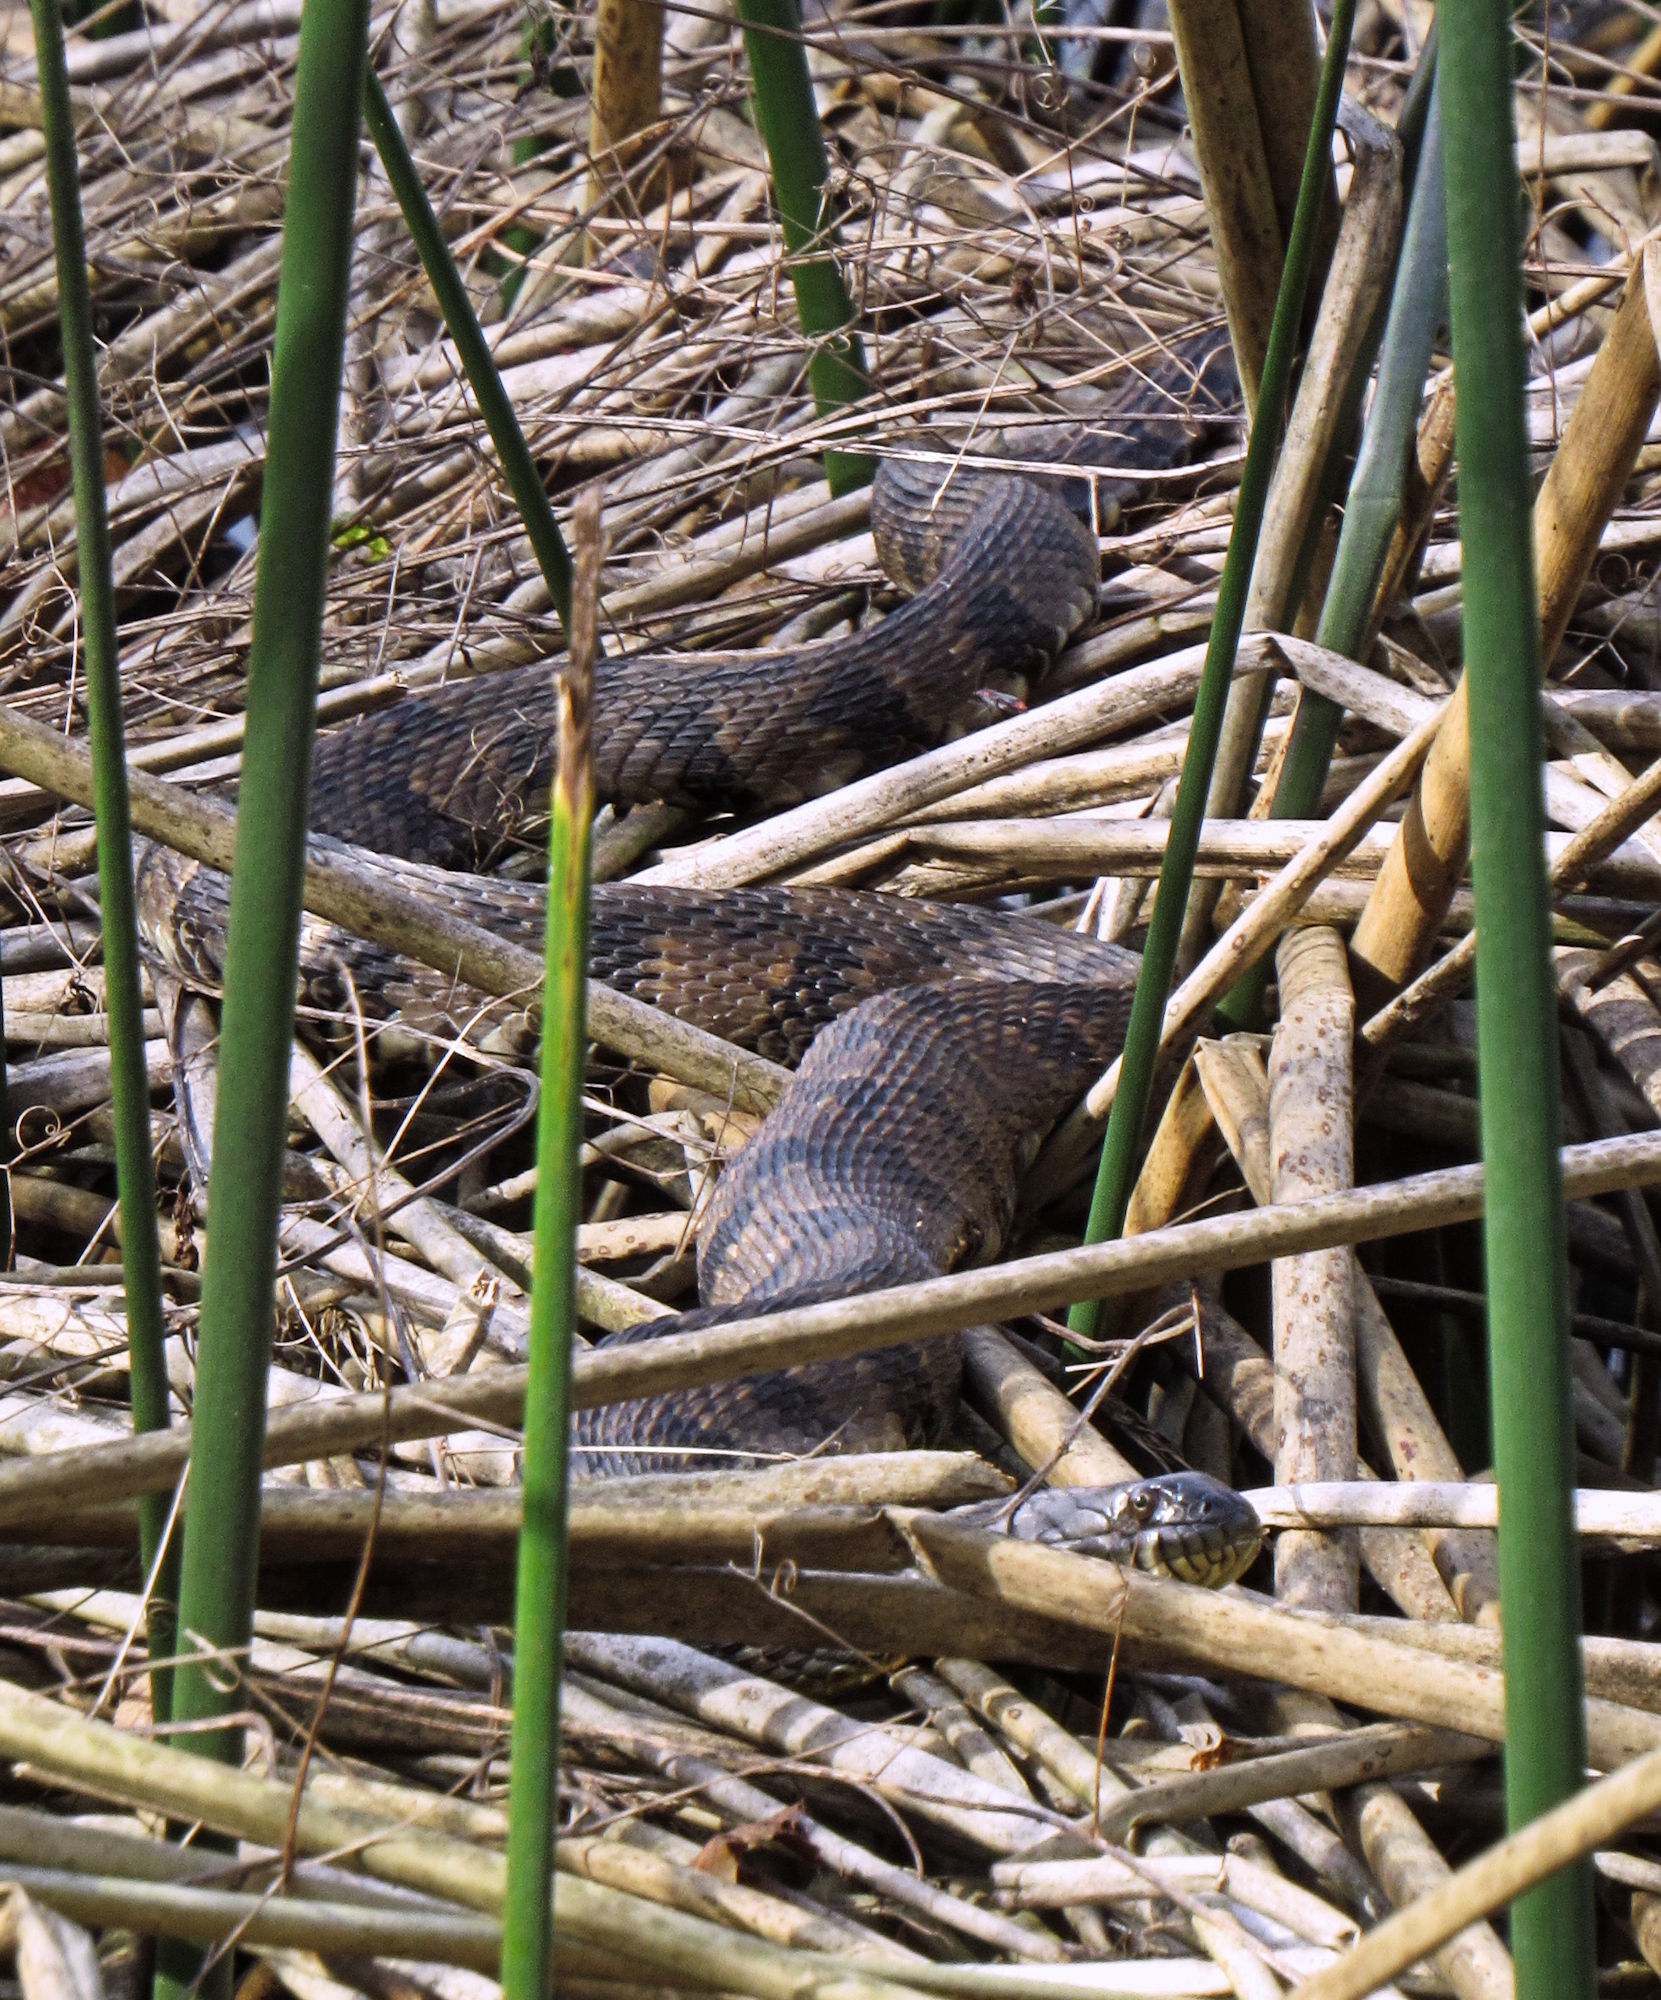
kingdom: Animalia
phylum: Chordata
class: Squamata
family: Colubridae
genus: Nerodia
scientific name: Nerodia rhombifer
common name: Diamondback water snake
